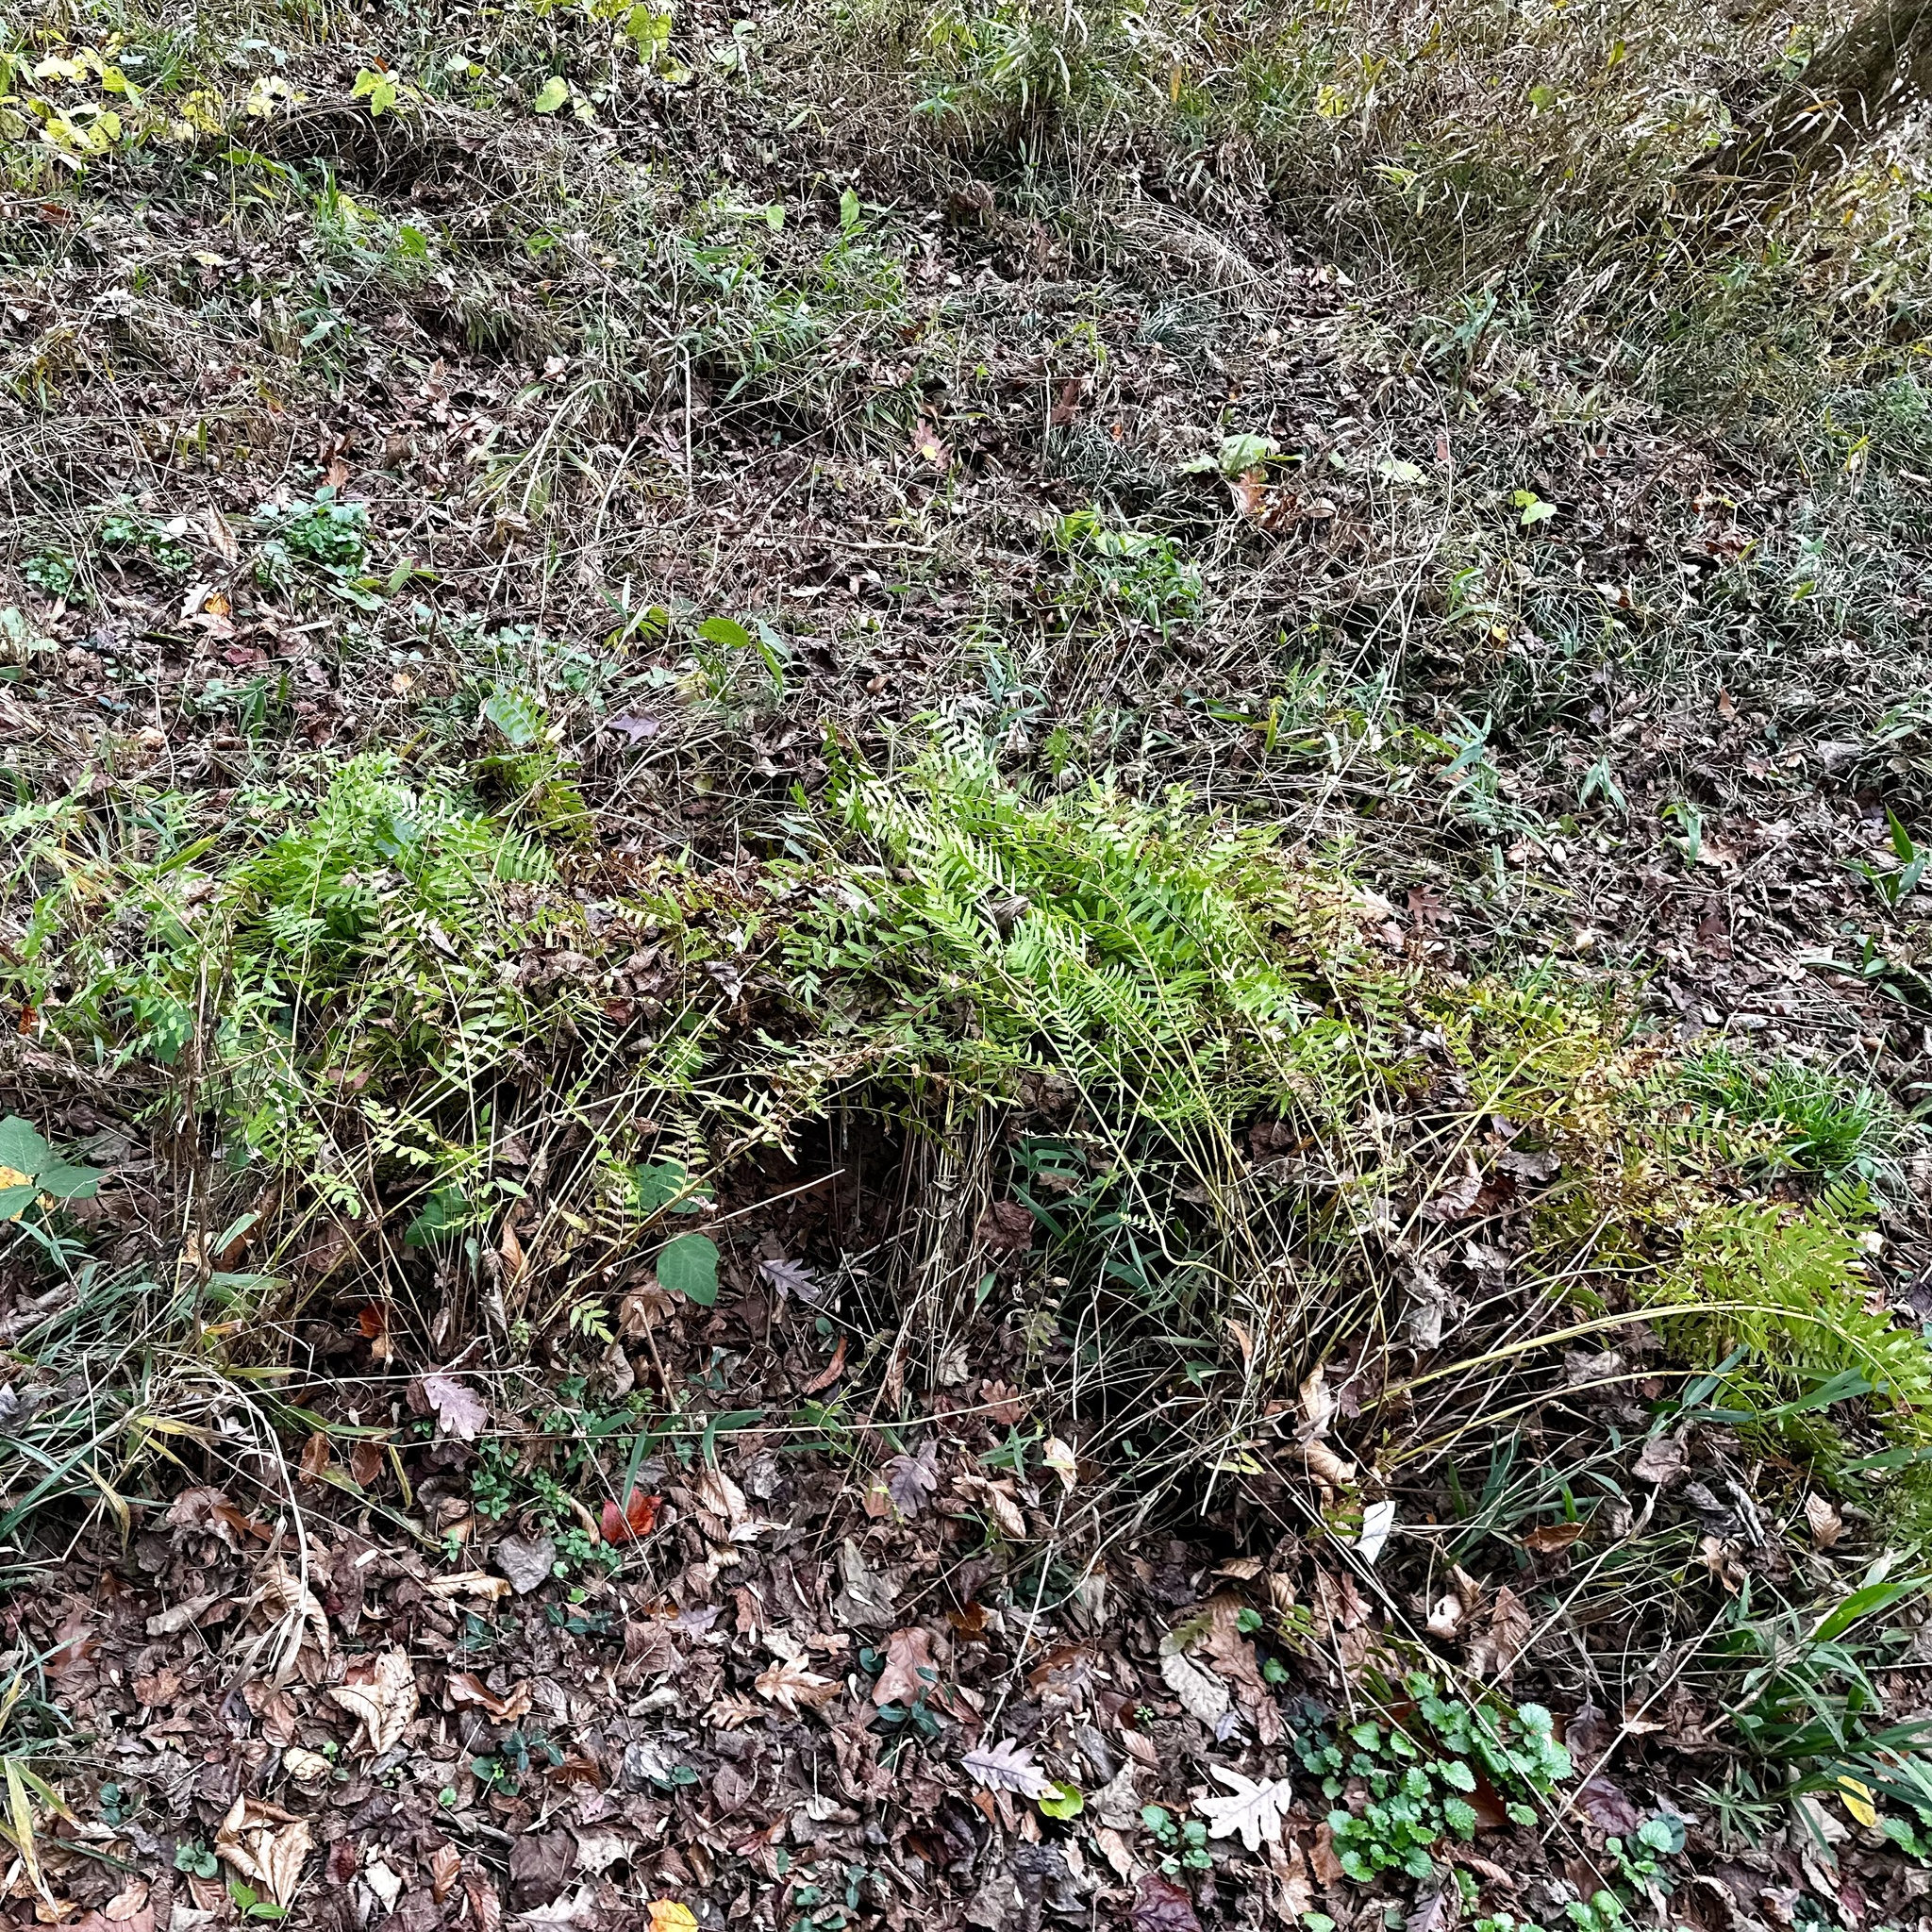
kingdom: Plantae
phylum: Tracheophyta
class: Polypodiopsida
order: Osmundales
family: Osmundaceae
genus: Osmunda
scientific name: Osmunda spectabilis
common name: American royal fern
